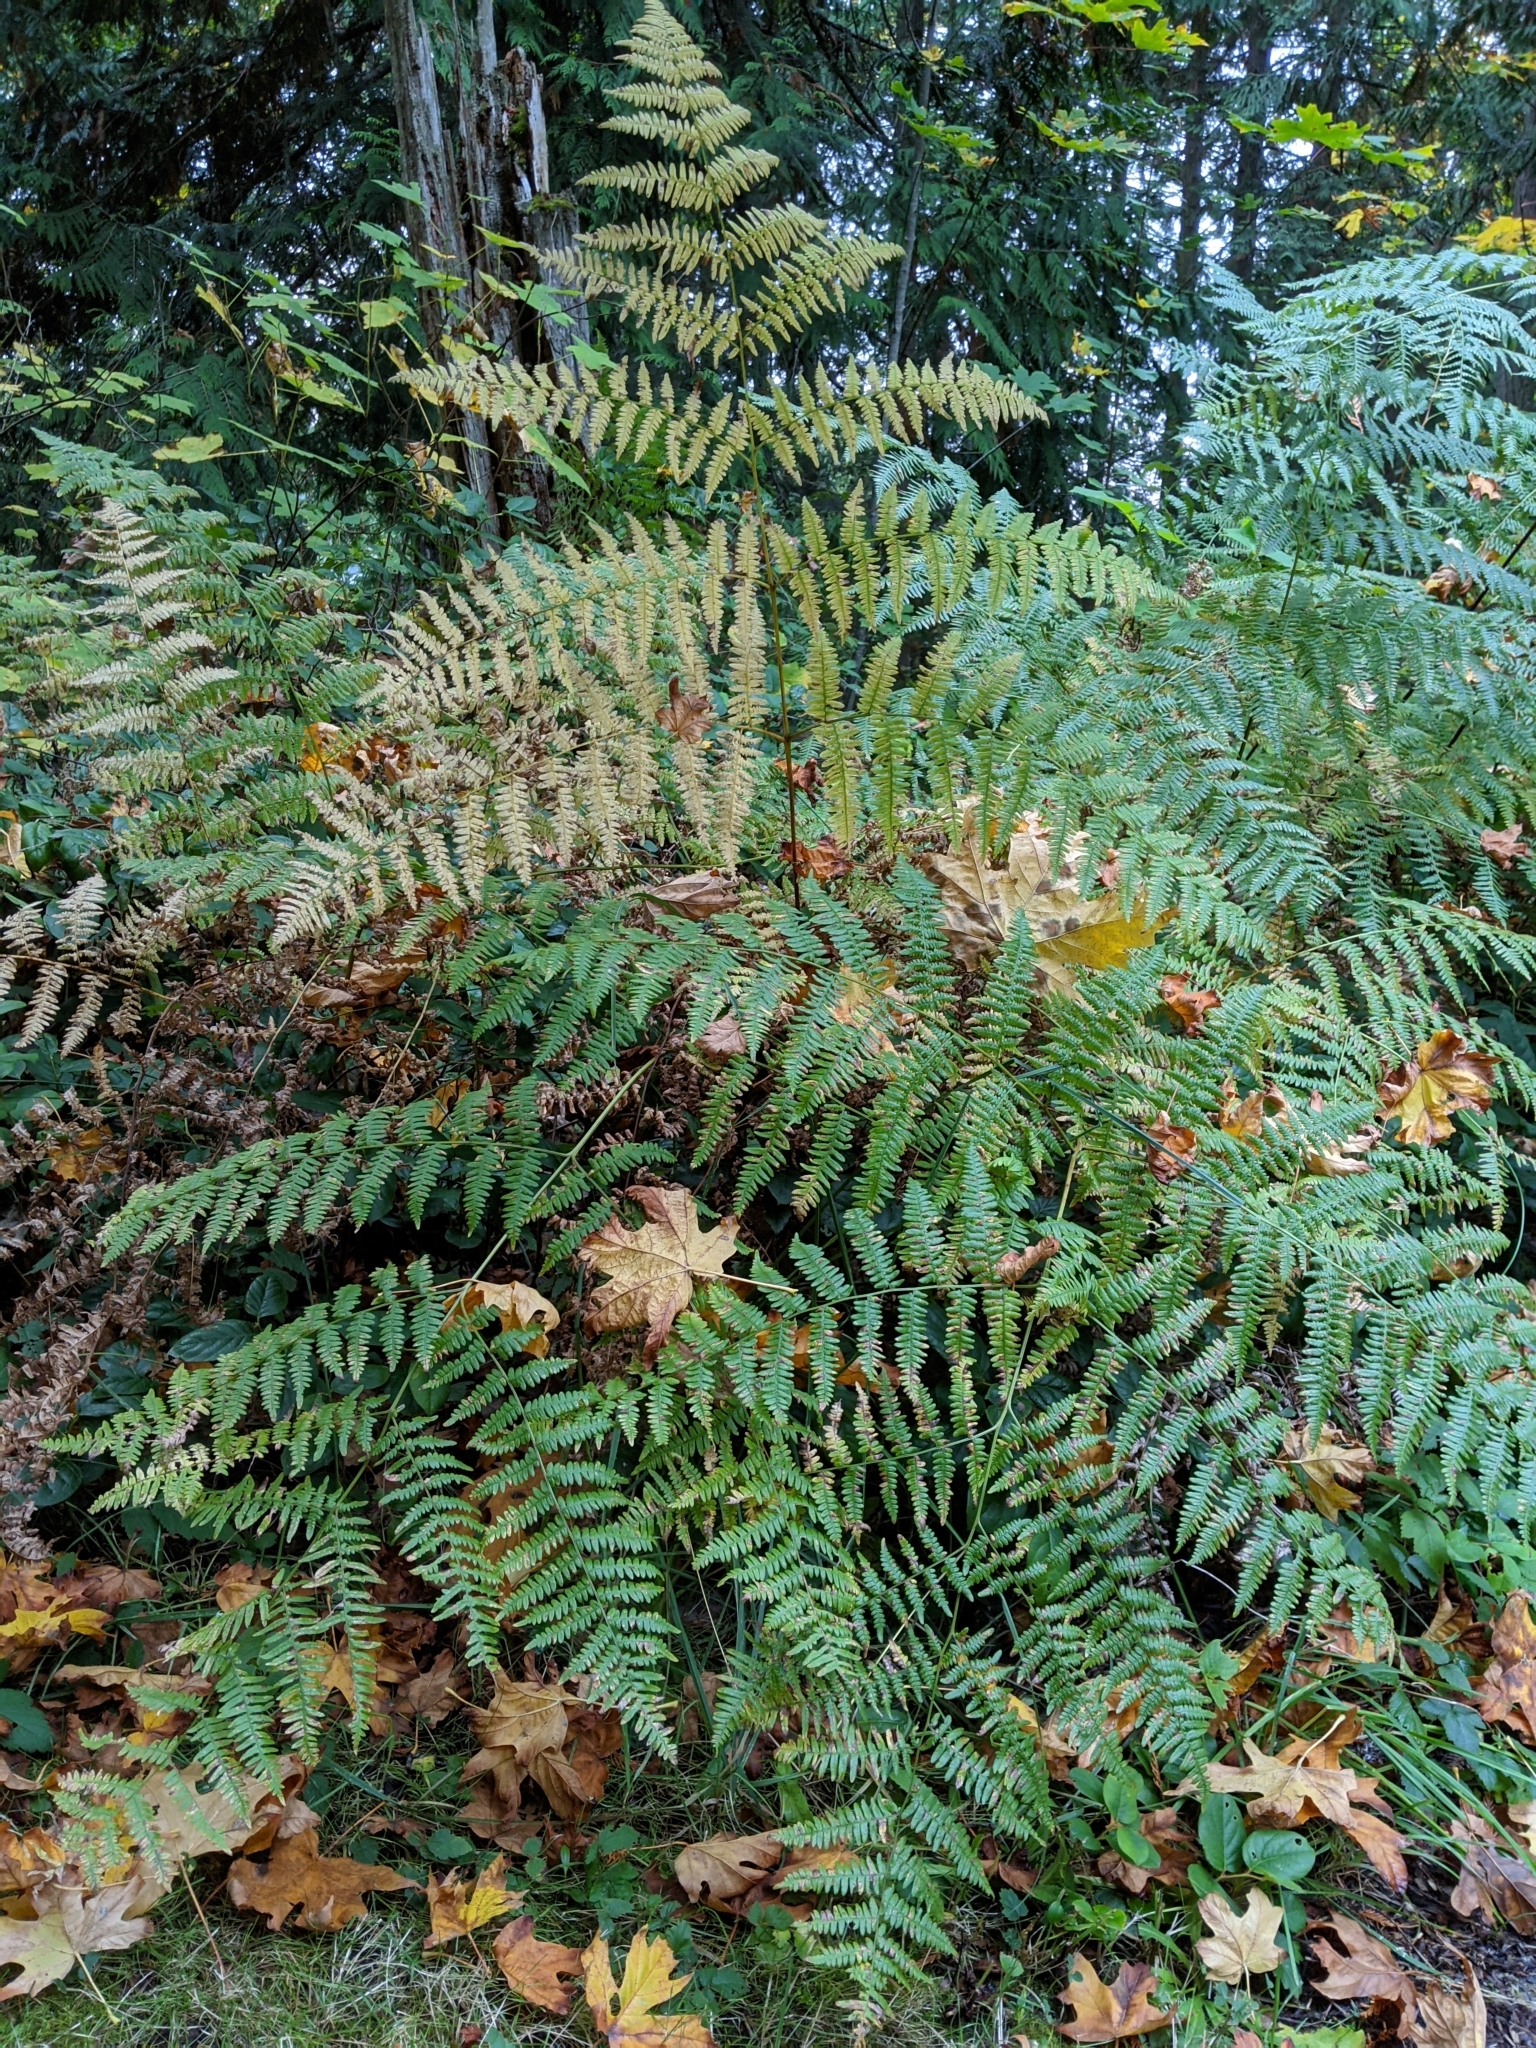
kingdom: Plantae
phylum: Tracheophyta
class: Polypodiopsida
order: Polypodiales
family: Dennstaedtiaceae
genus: Pteridium
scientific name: Pteridium aquilinum
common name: Bracken
